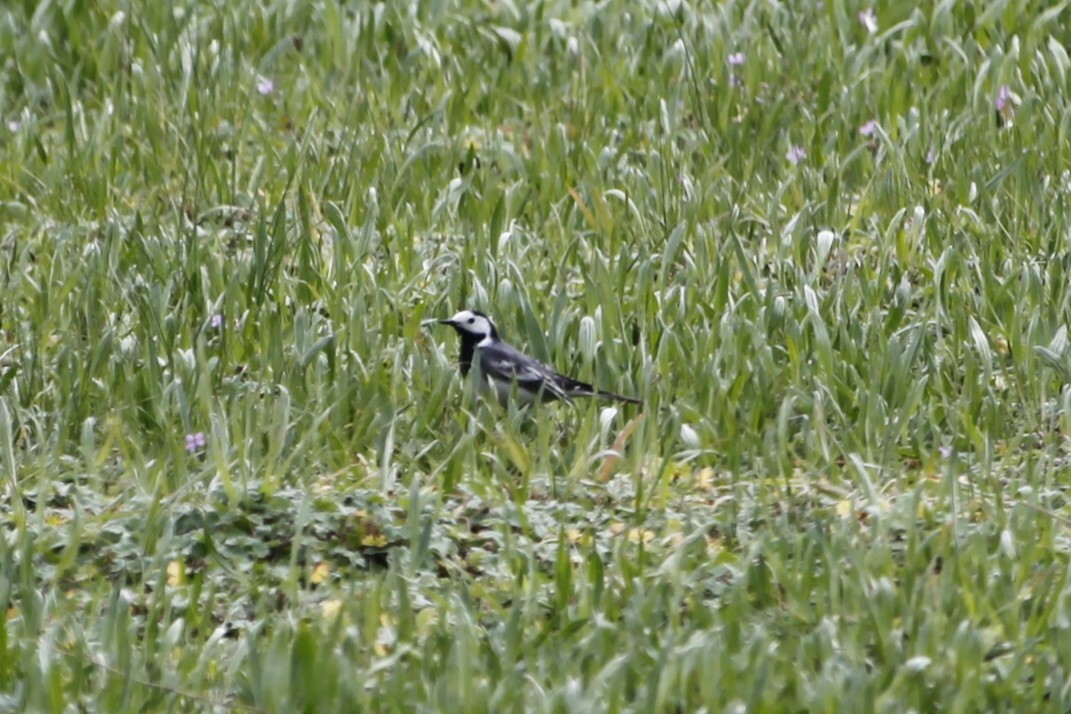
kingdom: Animalia
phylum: Chordata
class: Aves
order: Passeriformes
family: Motacillidae
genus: Motacilla
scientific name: Motacilla alba
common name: White wagtail
